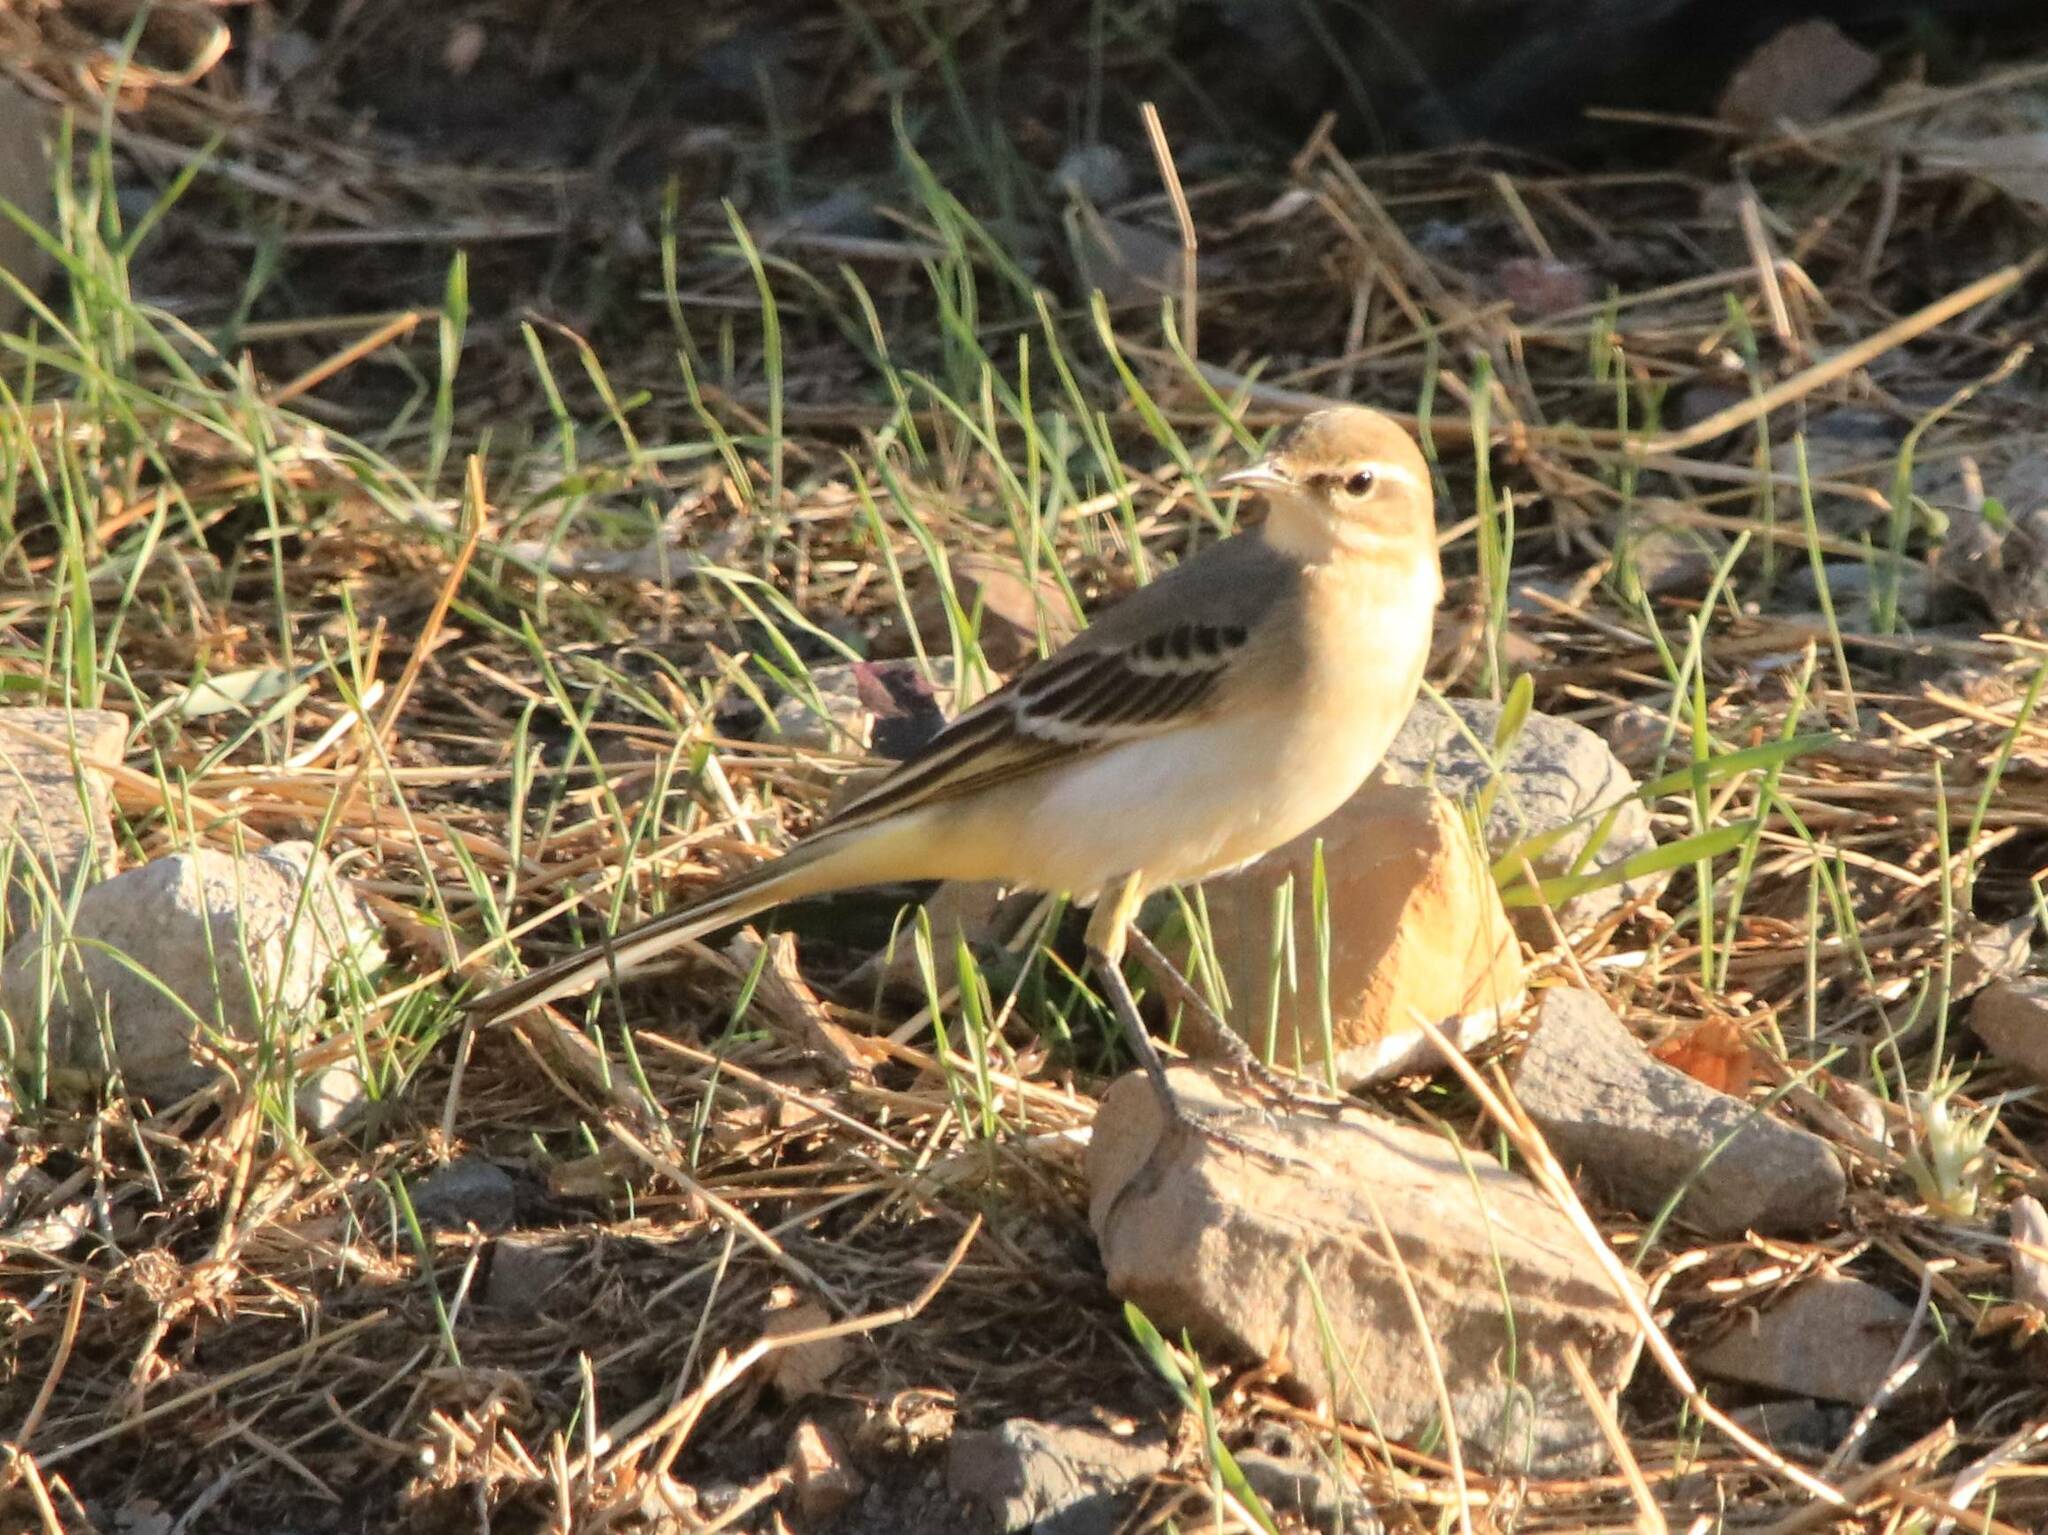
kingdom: Animalia
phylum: Chordata
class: Aves
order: Passeriformes
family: Motacillidae
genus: Motacilla
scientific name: Motacilla flava
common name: Western yellow wagtail
